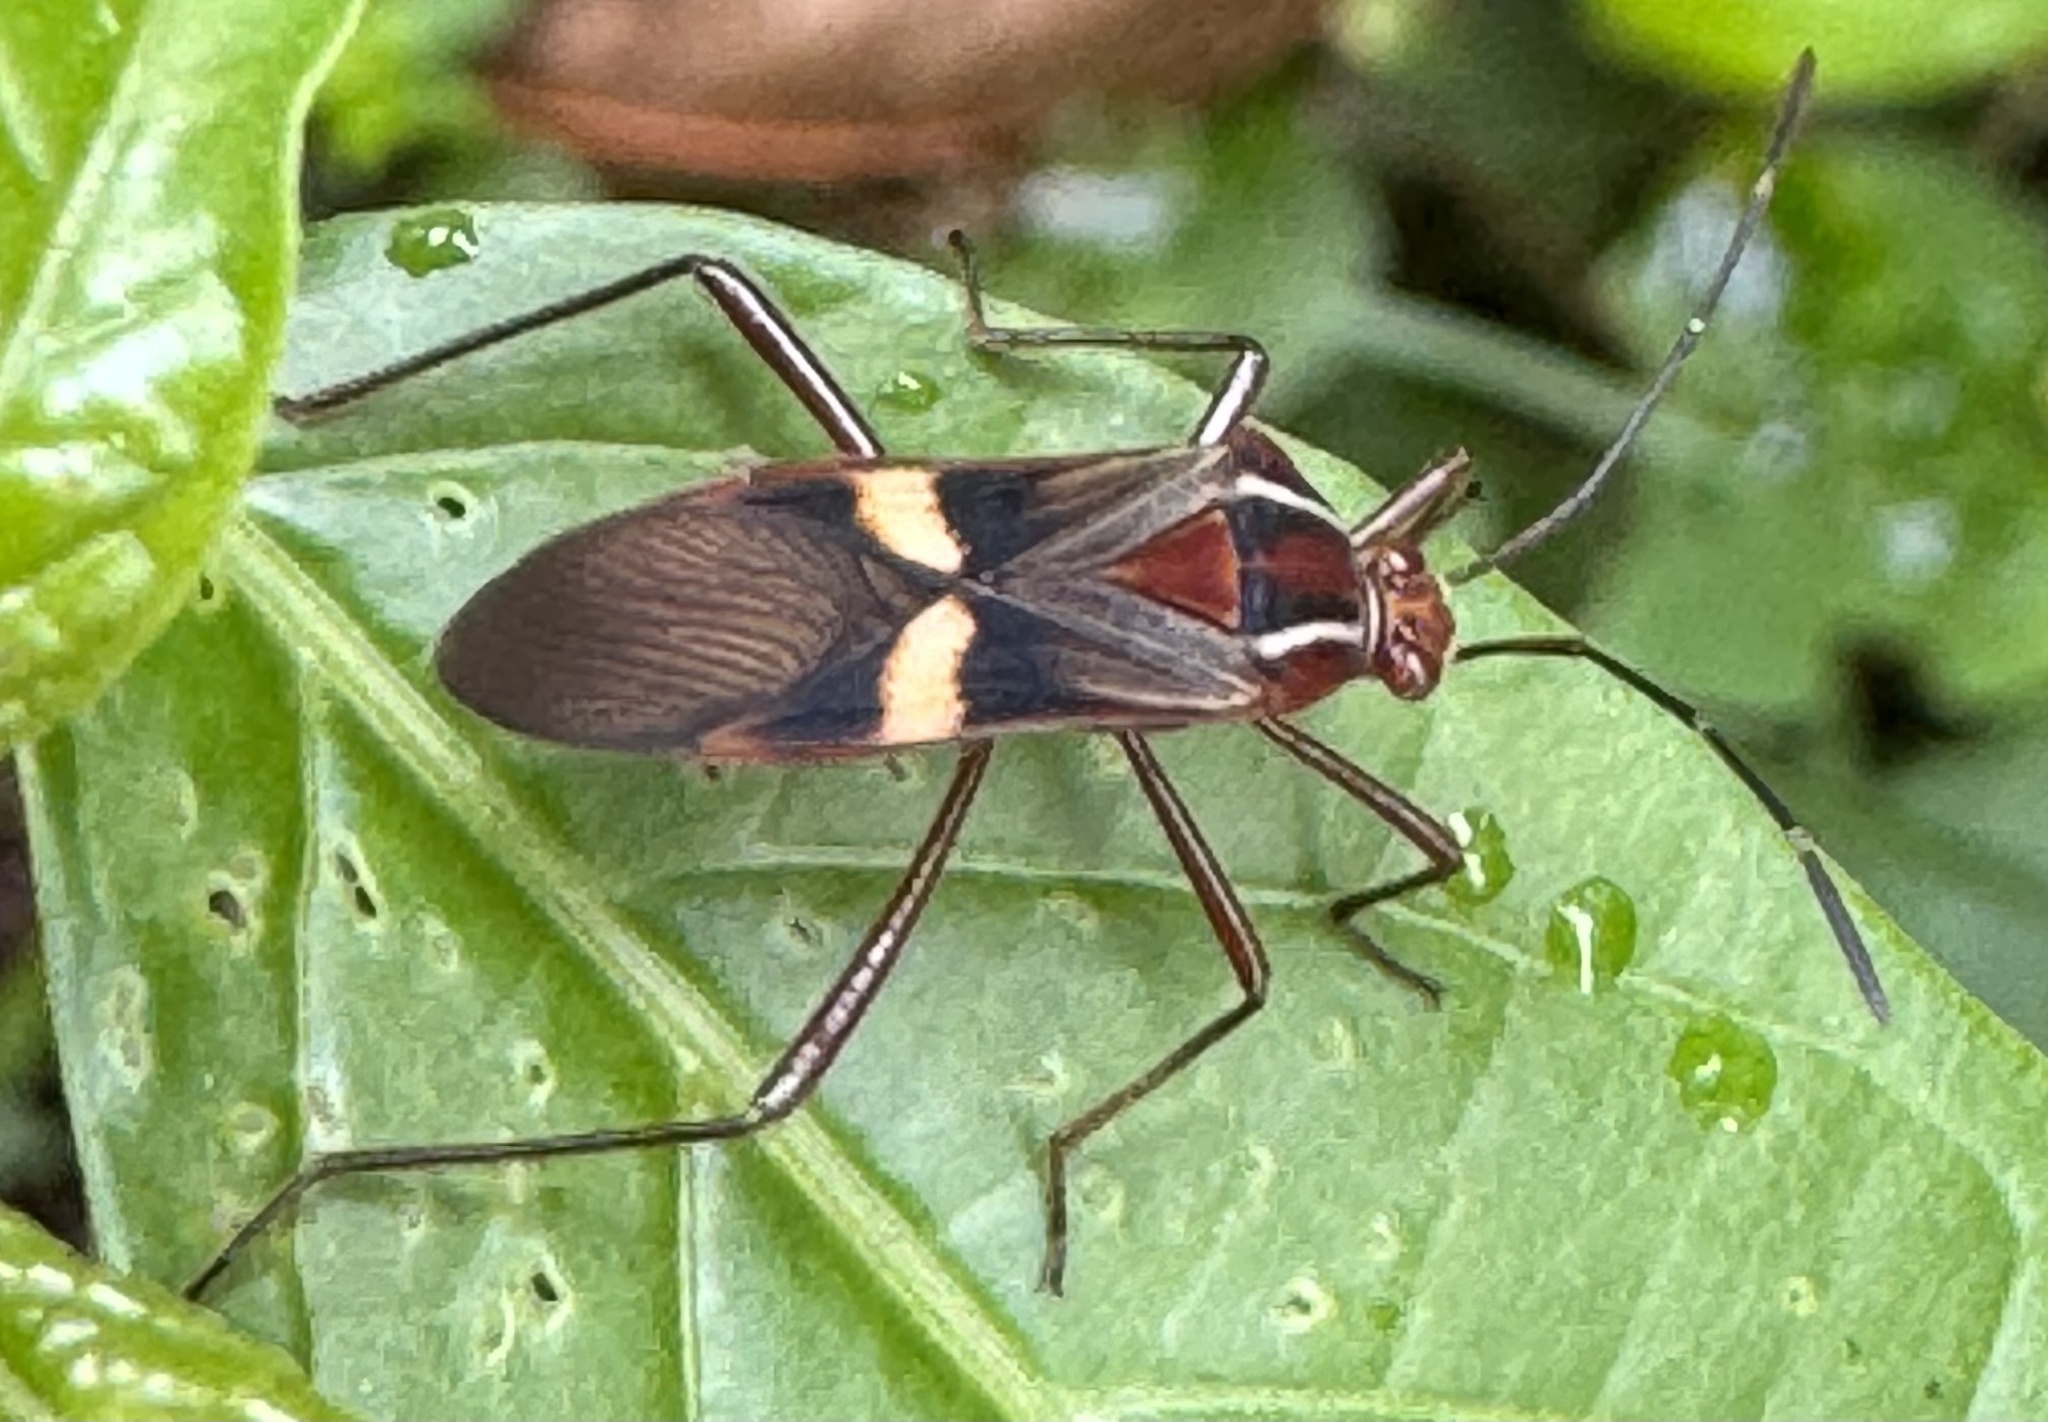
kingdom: Animalia
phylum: Arthropoda
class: Insecta
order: Hemiptera
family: Coreidae
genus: Hypselonotus
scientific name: Hypselonotus interruptus
